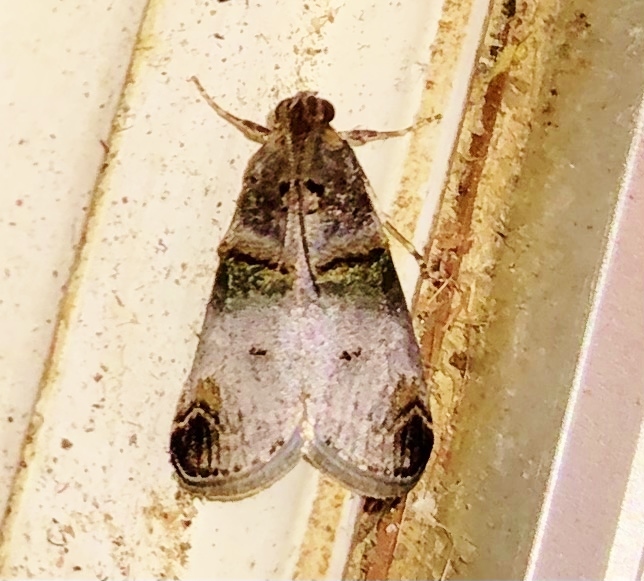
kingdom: Animalia
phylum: Arthropoda
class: Insecta
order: Lepidoptera
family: Pyralidae
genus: Oneida
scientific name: Oneida lunulalis
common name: Orange-tufted oneida moth
